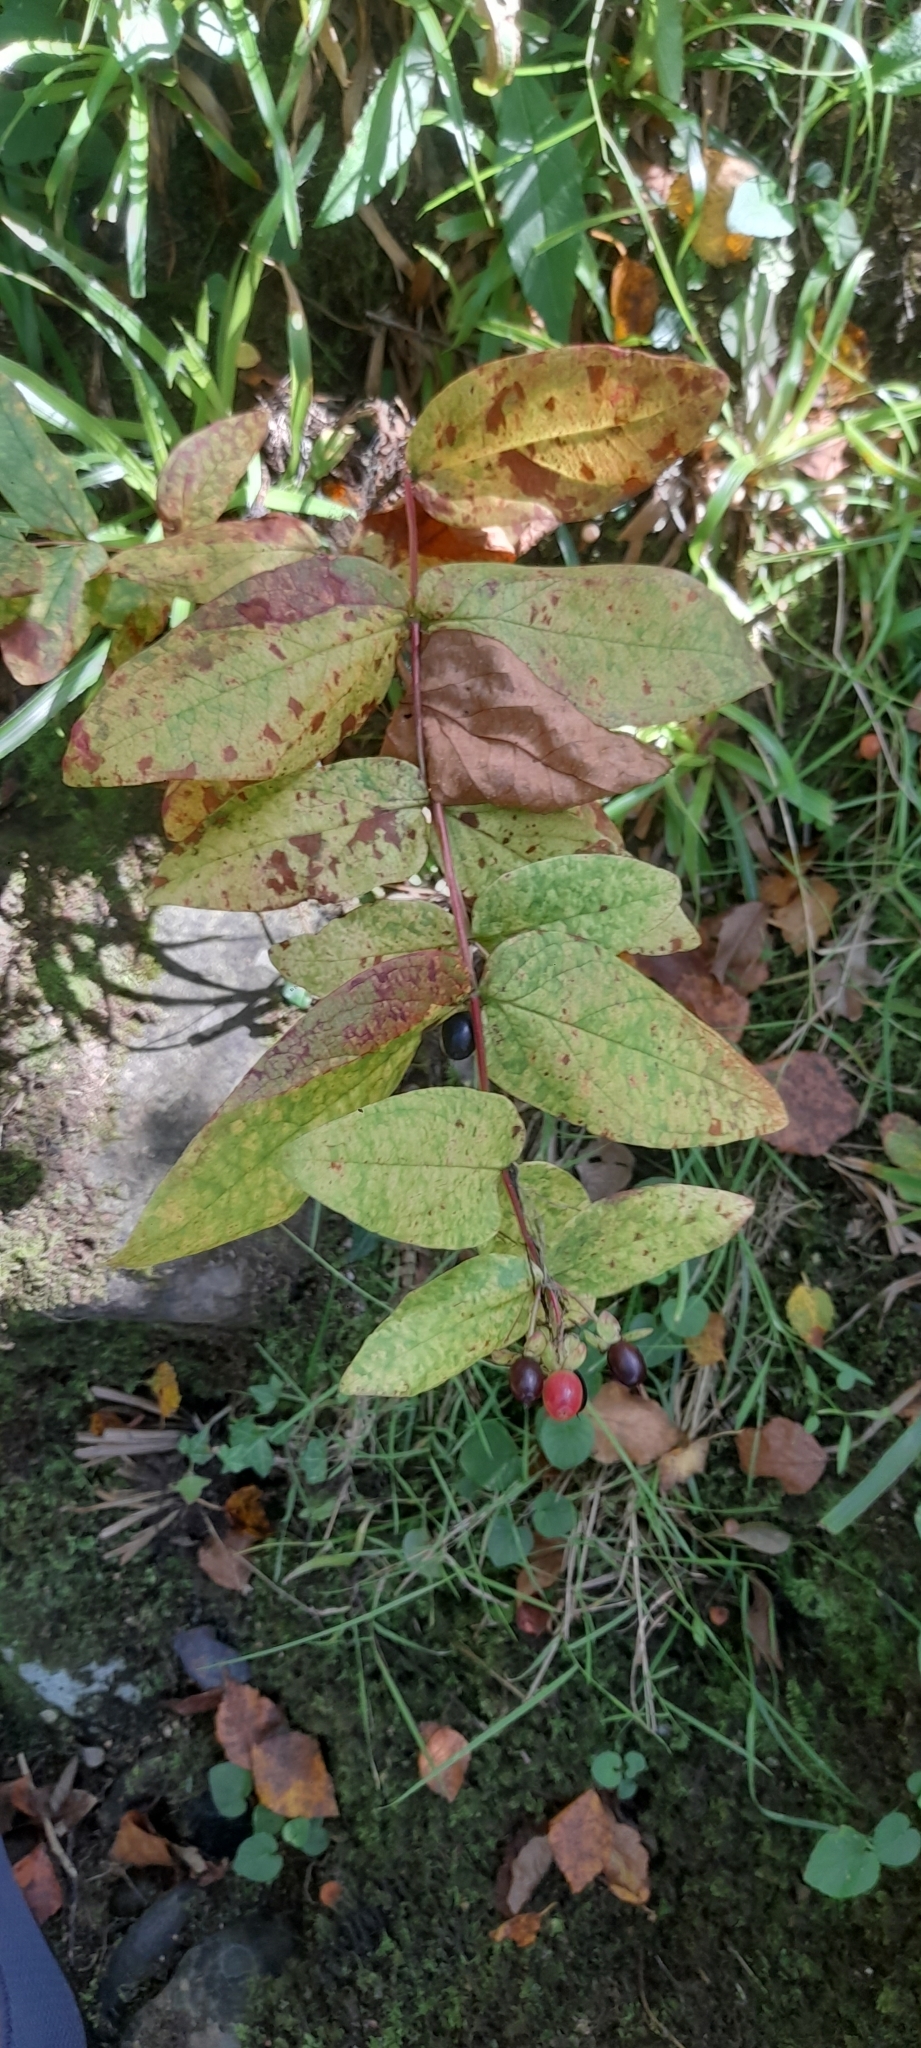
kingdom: Plantae
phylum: Tracheophyta
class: Magnoliopsida
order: Malpighiales
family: Hypericaceae
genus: Hypericum
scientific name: Hypericum androsaemum
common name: Sweet-amber
